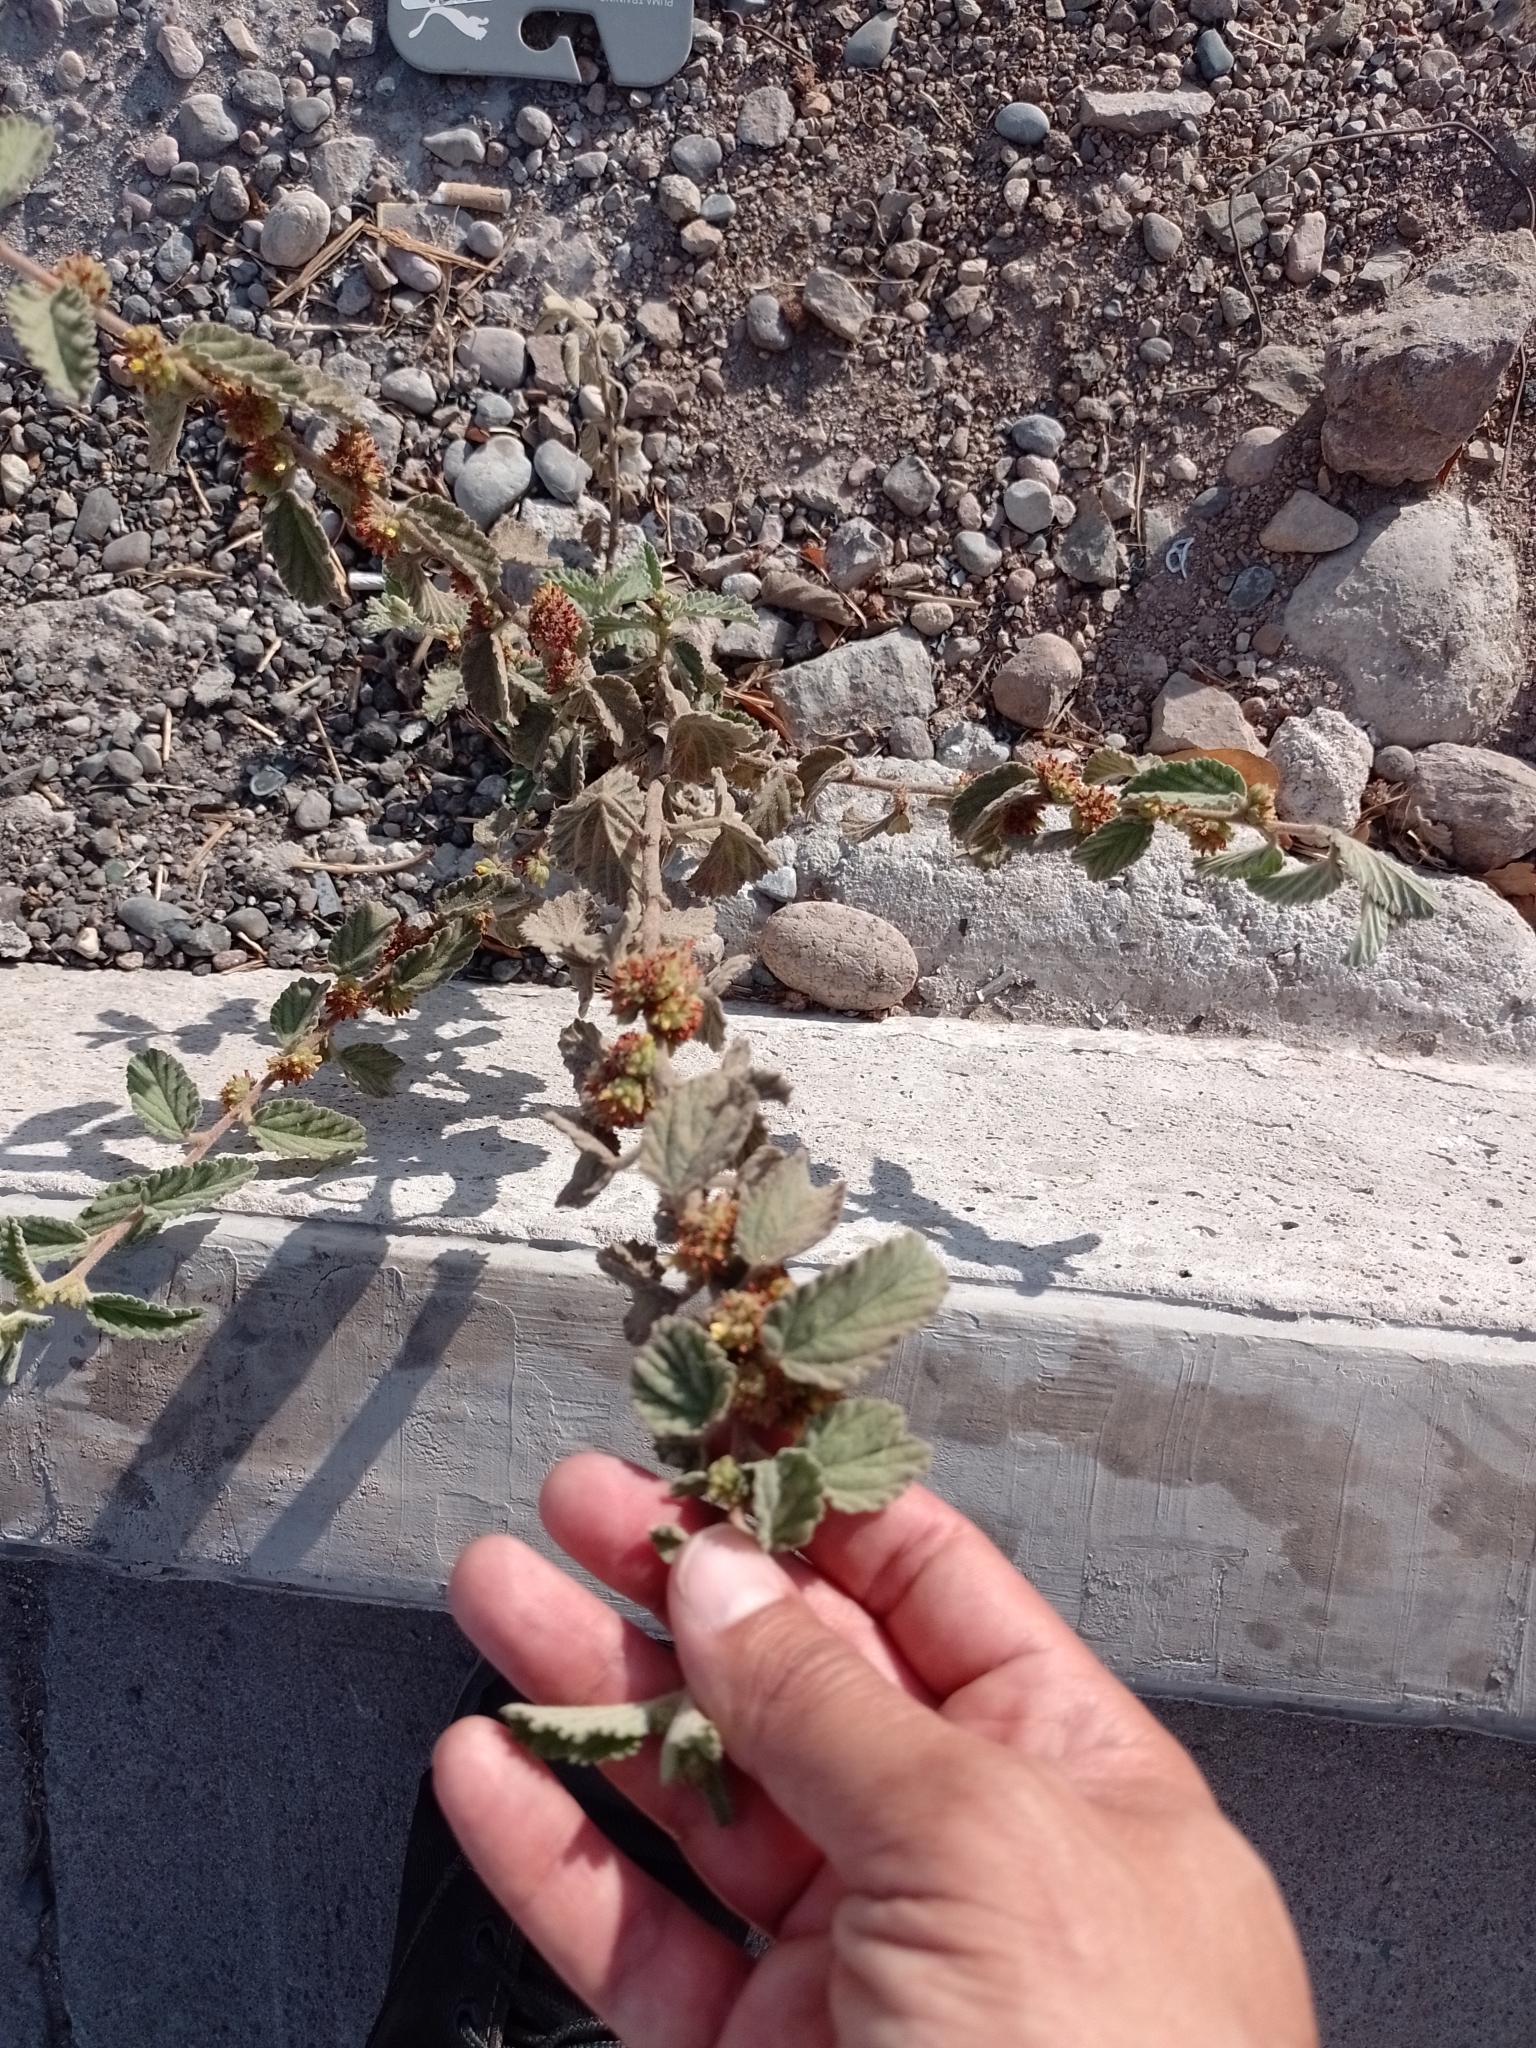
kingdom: Plantae
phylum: Tracheophyta
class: Magnoliopsida
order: Malvales
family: Malvaceae
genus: Waltheria
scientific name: Waltheria indica
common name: Leather-coat
